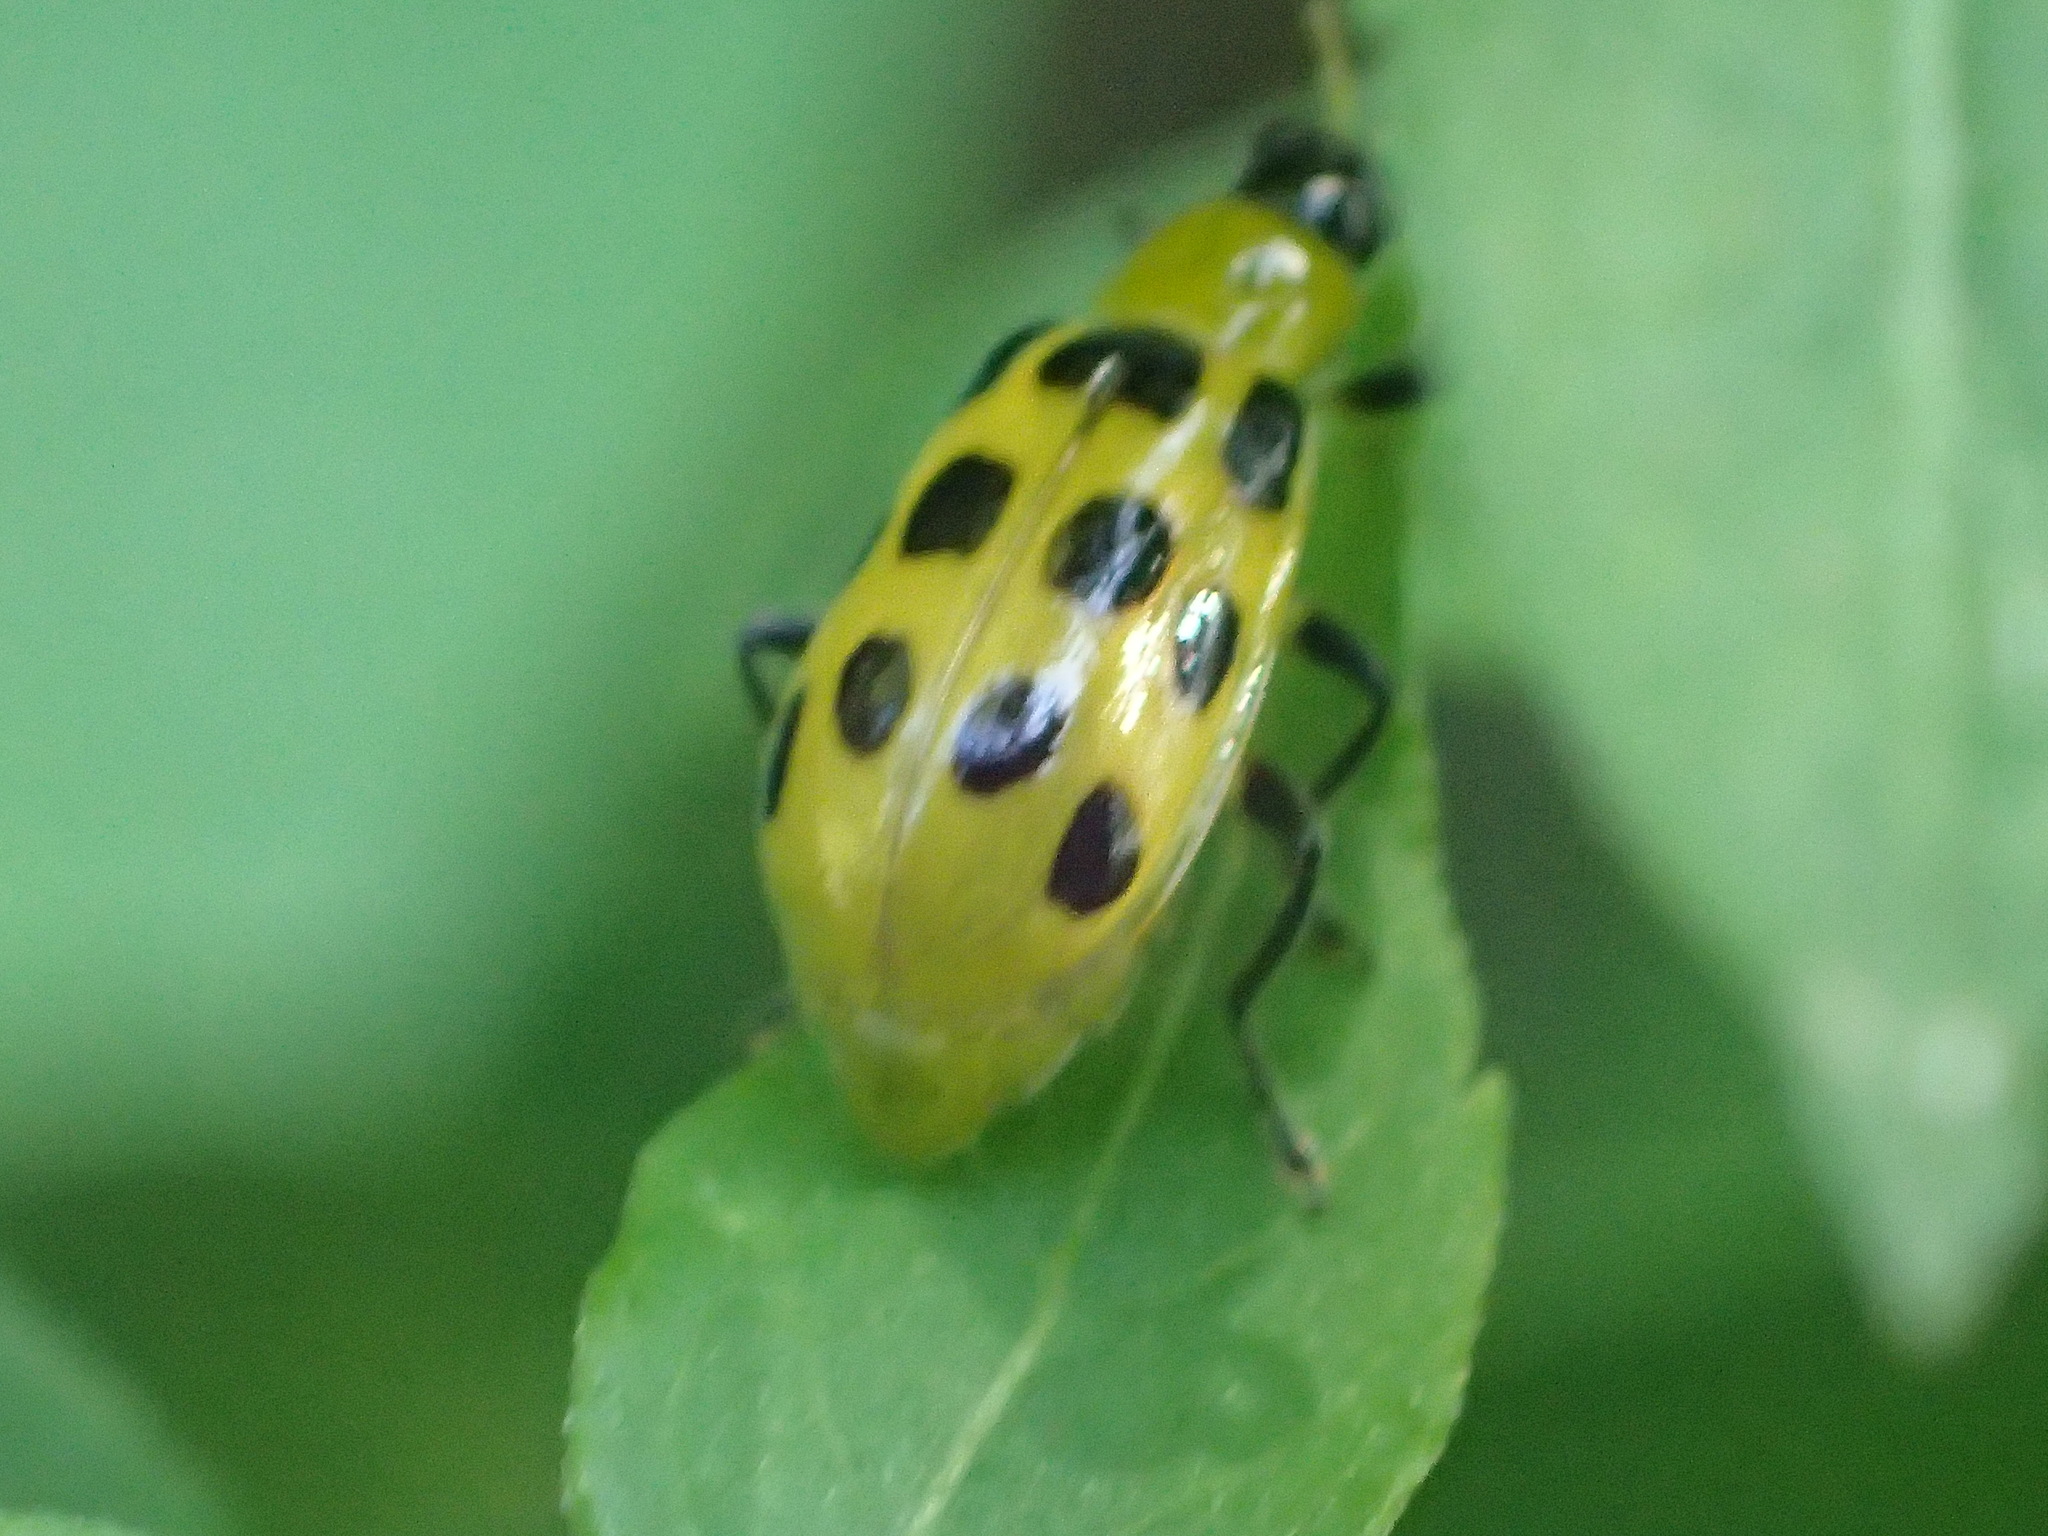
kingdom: Animalia
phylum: Arthropoda
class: Insecta
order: Coleoptera
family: Chrysomelidae
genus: Diabrotica
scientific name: Diabrotica undecimpunctata
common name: Spotted cucumber beetle
